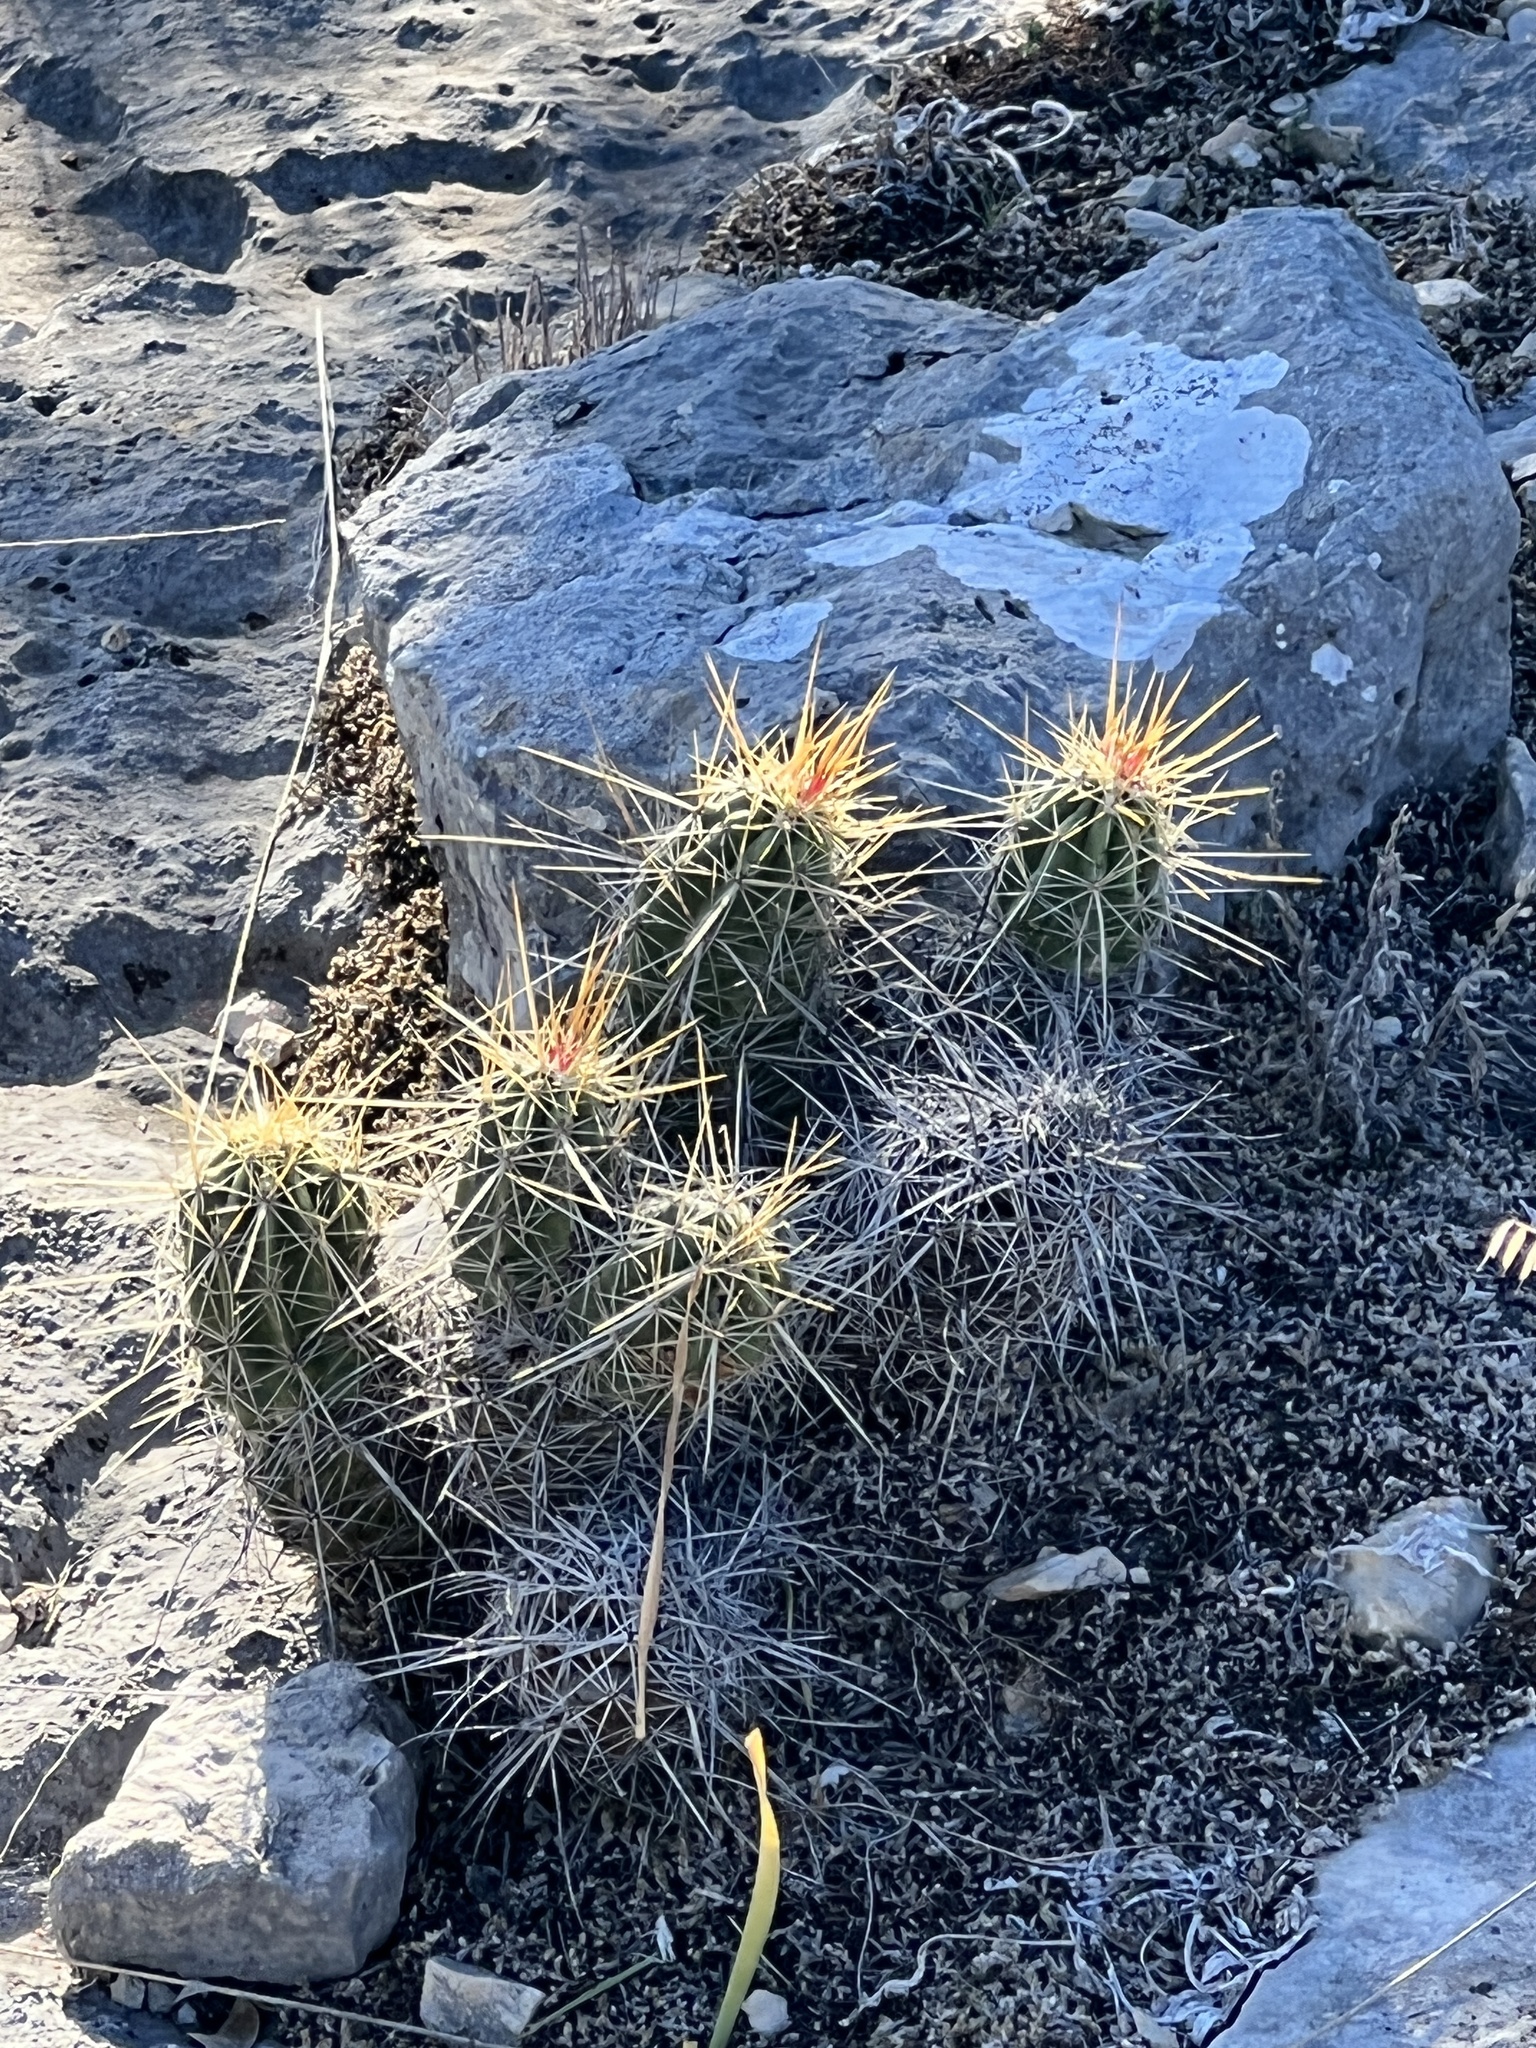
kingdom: Plantae
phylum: Tracheophyta
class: Magnoliopsida
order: Caryophyllales
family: Cactaceae
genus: Echinocereus
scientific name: Echinocereus enneacanthus
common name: Pitaya
